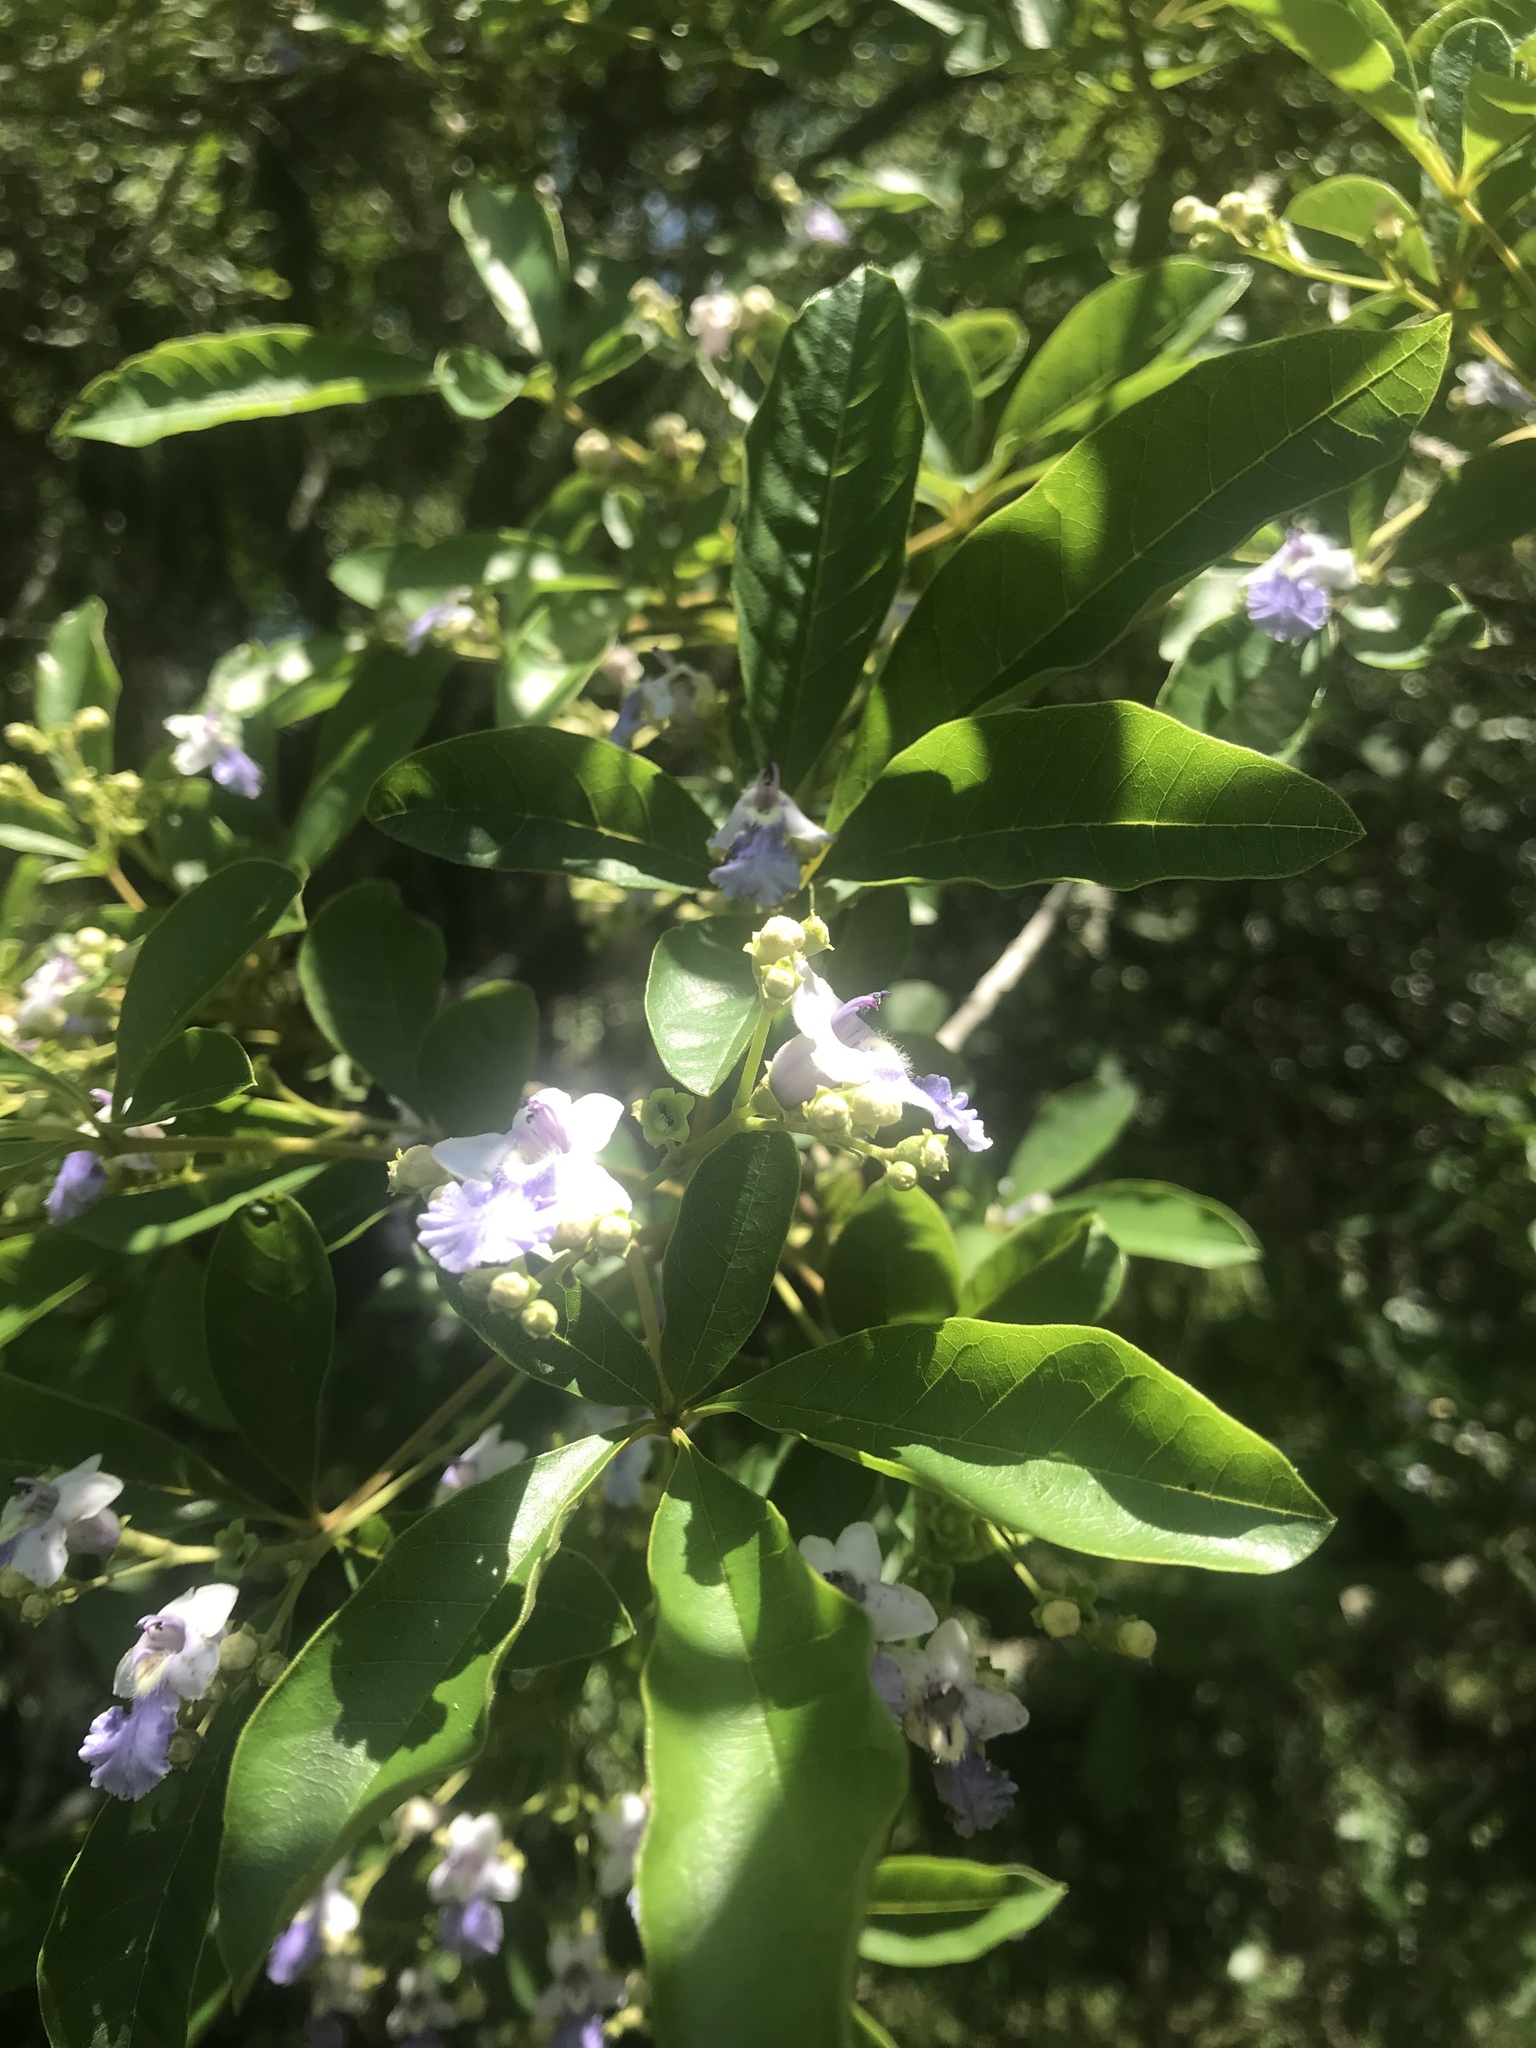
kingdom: Plantae
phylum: Tracheophyta
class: Magnoliopsida
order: Lamiales
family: Lamiaceae
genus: Vitex
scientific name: Vitex megapotamica
